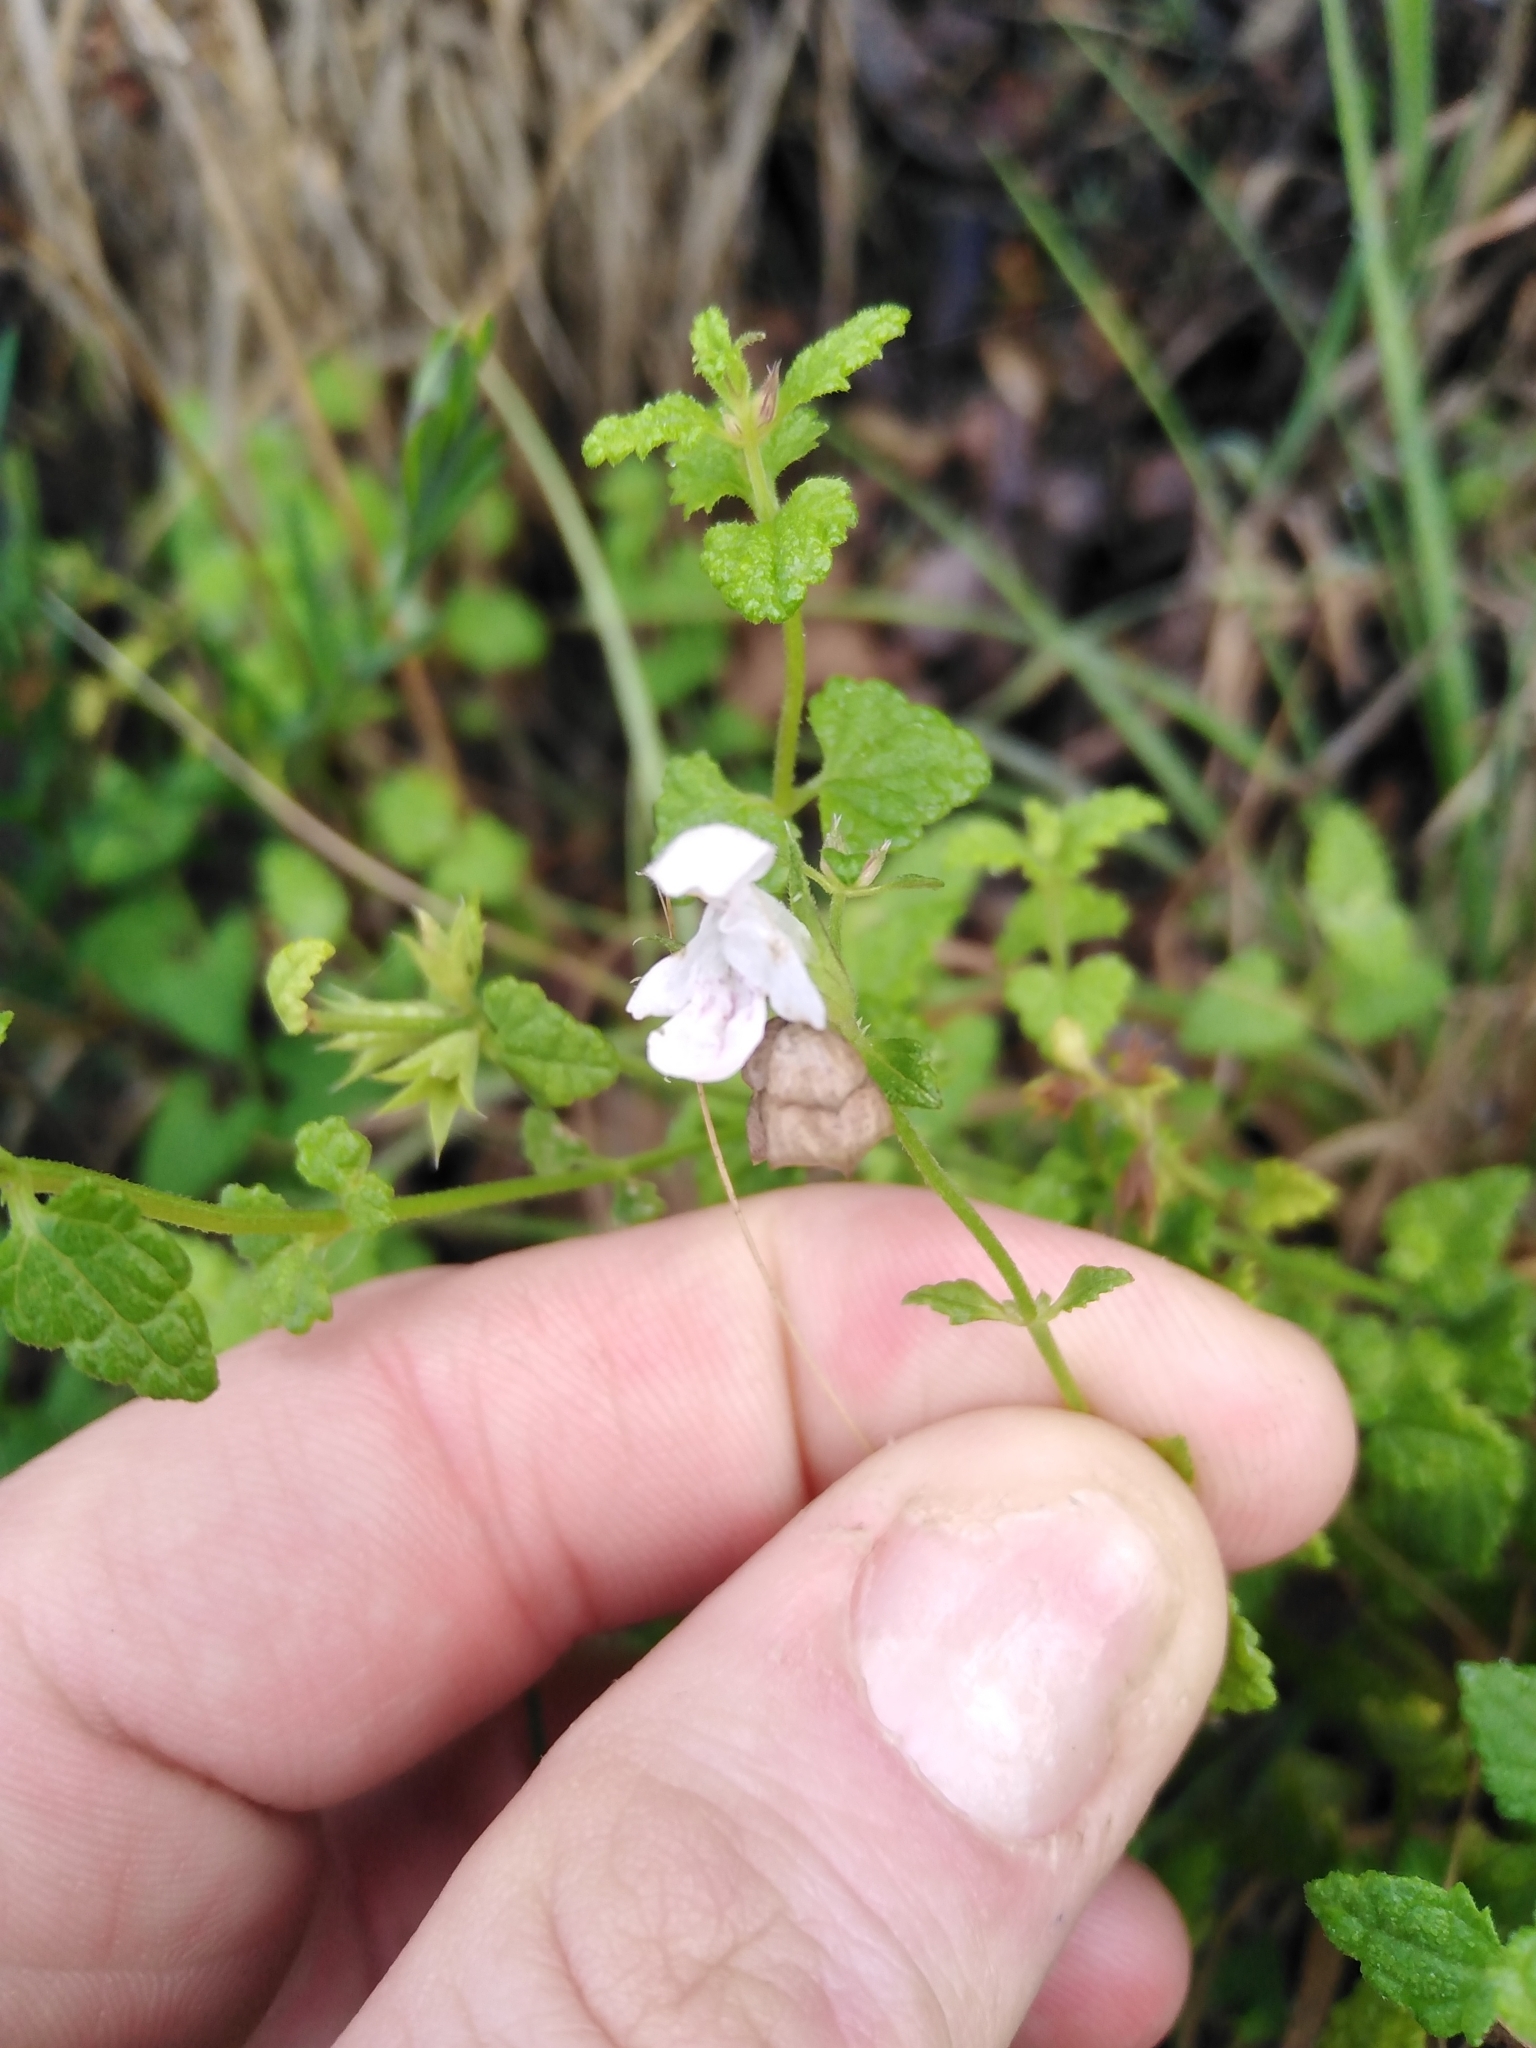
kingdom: Plantae
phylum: Tracheophyta
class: Magnoliopsida
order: Lamiales
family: Lamiaceae
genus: Stachys
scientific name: Stachys aethiopica
